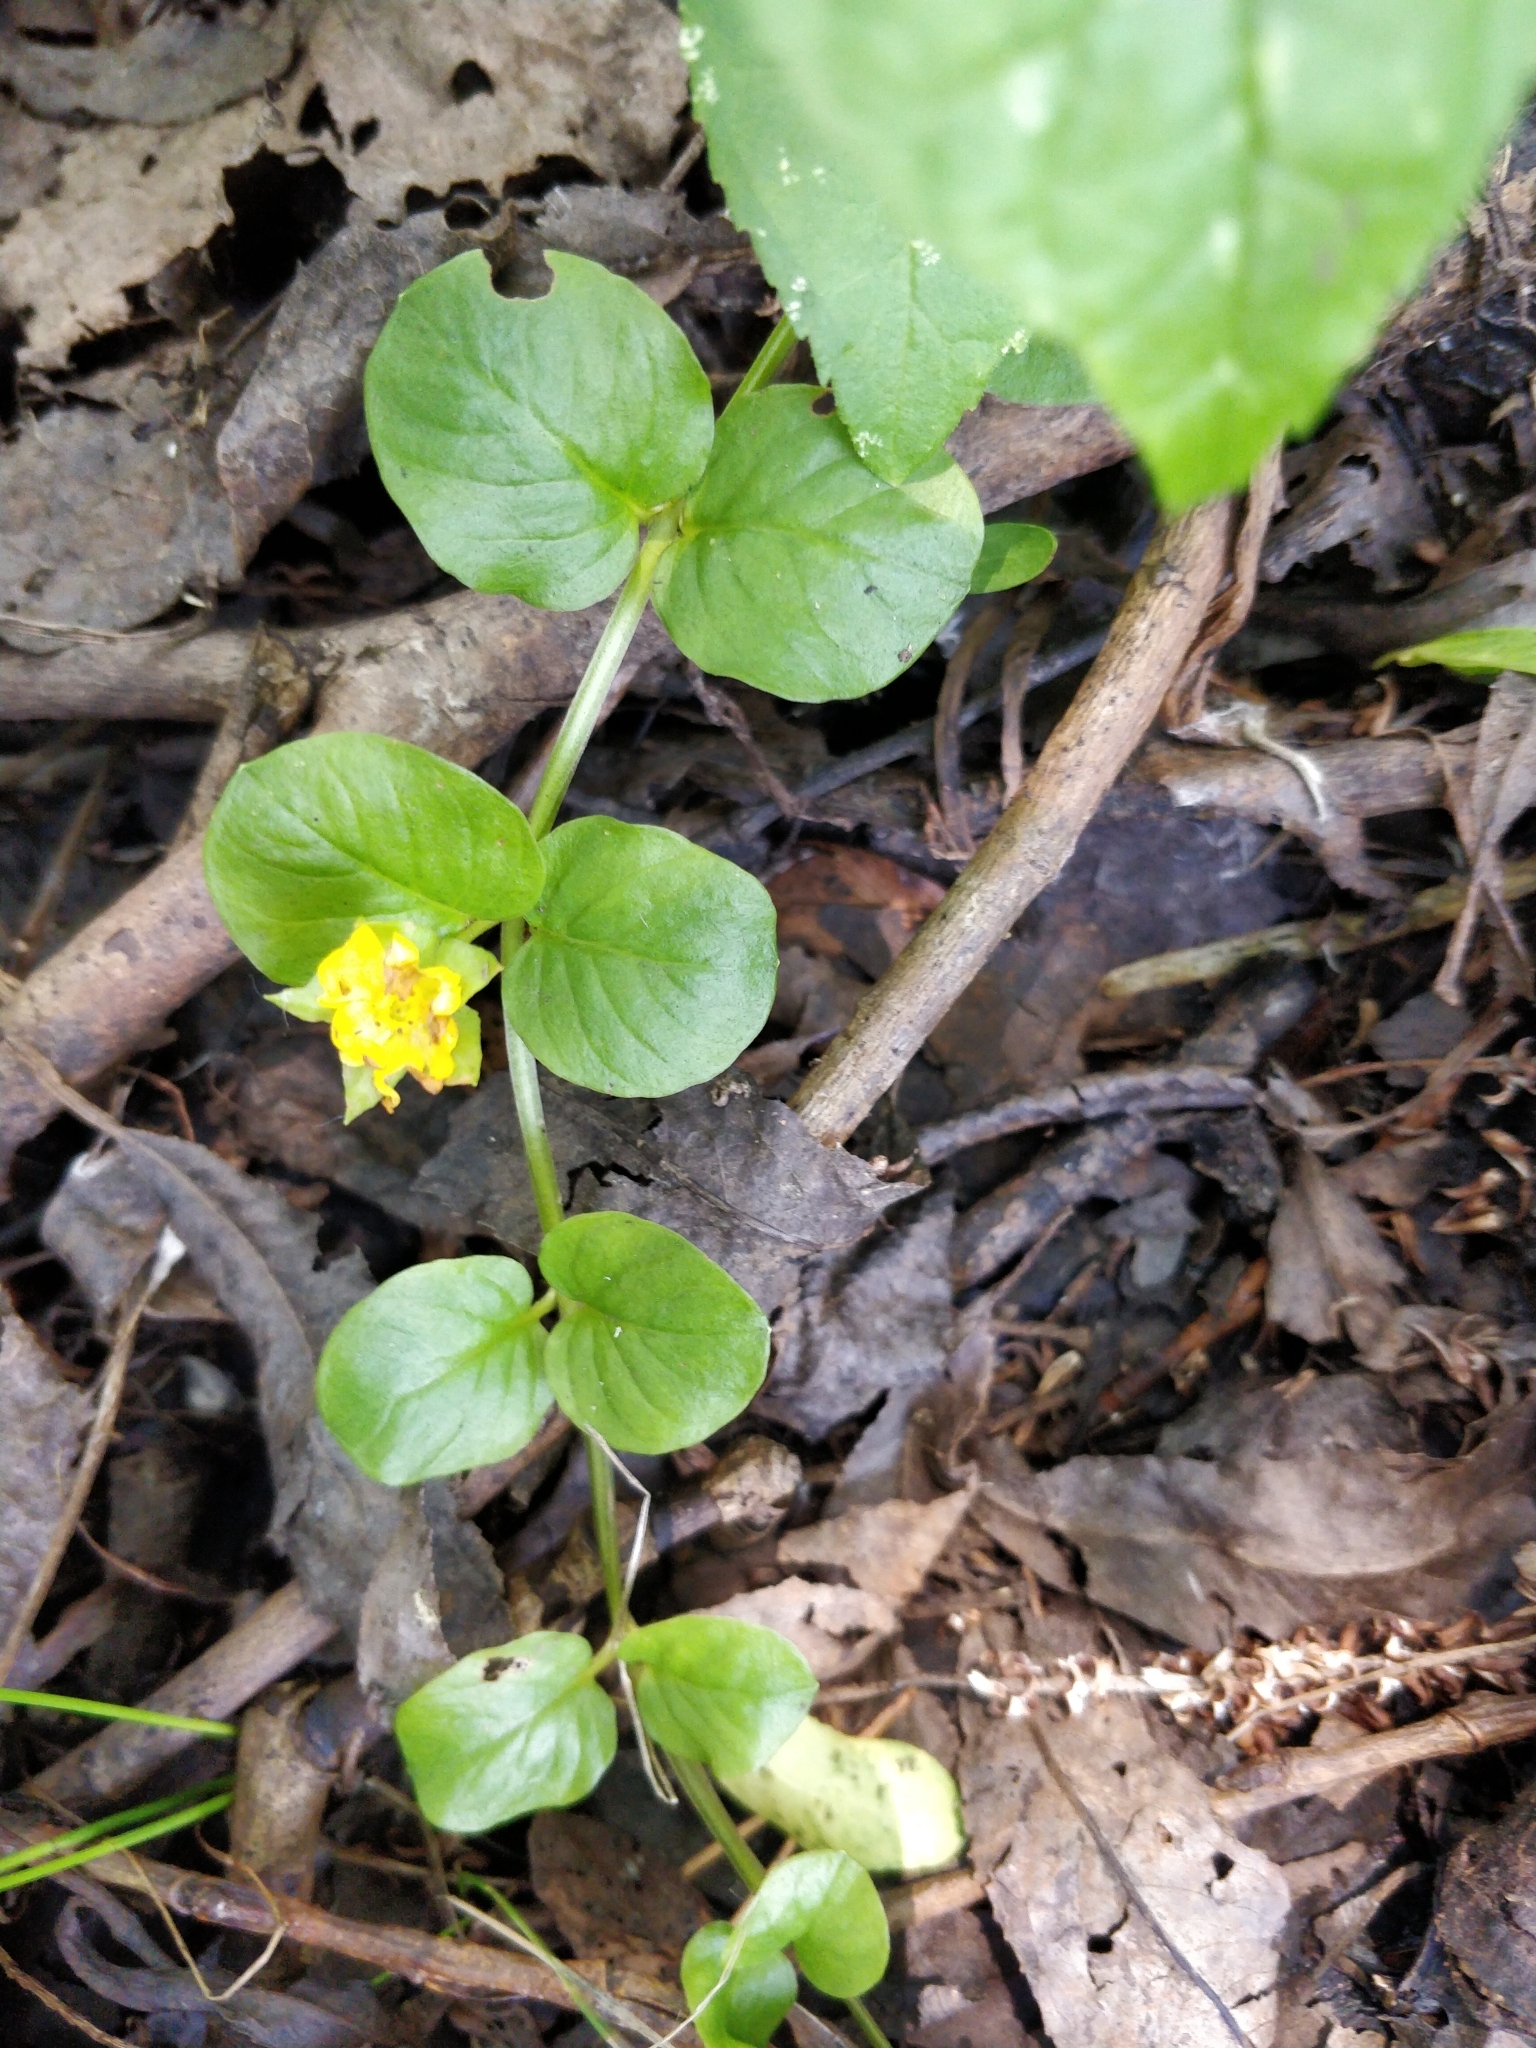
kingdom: Plantae
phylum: Tracheophyta
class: Magnoliopsida
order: Ericales
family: Primulaceae
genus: Lysimachia
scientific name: Lysimachia nummularia
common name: Moneywort
